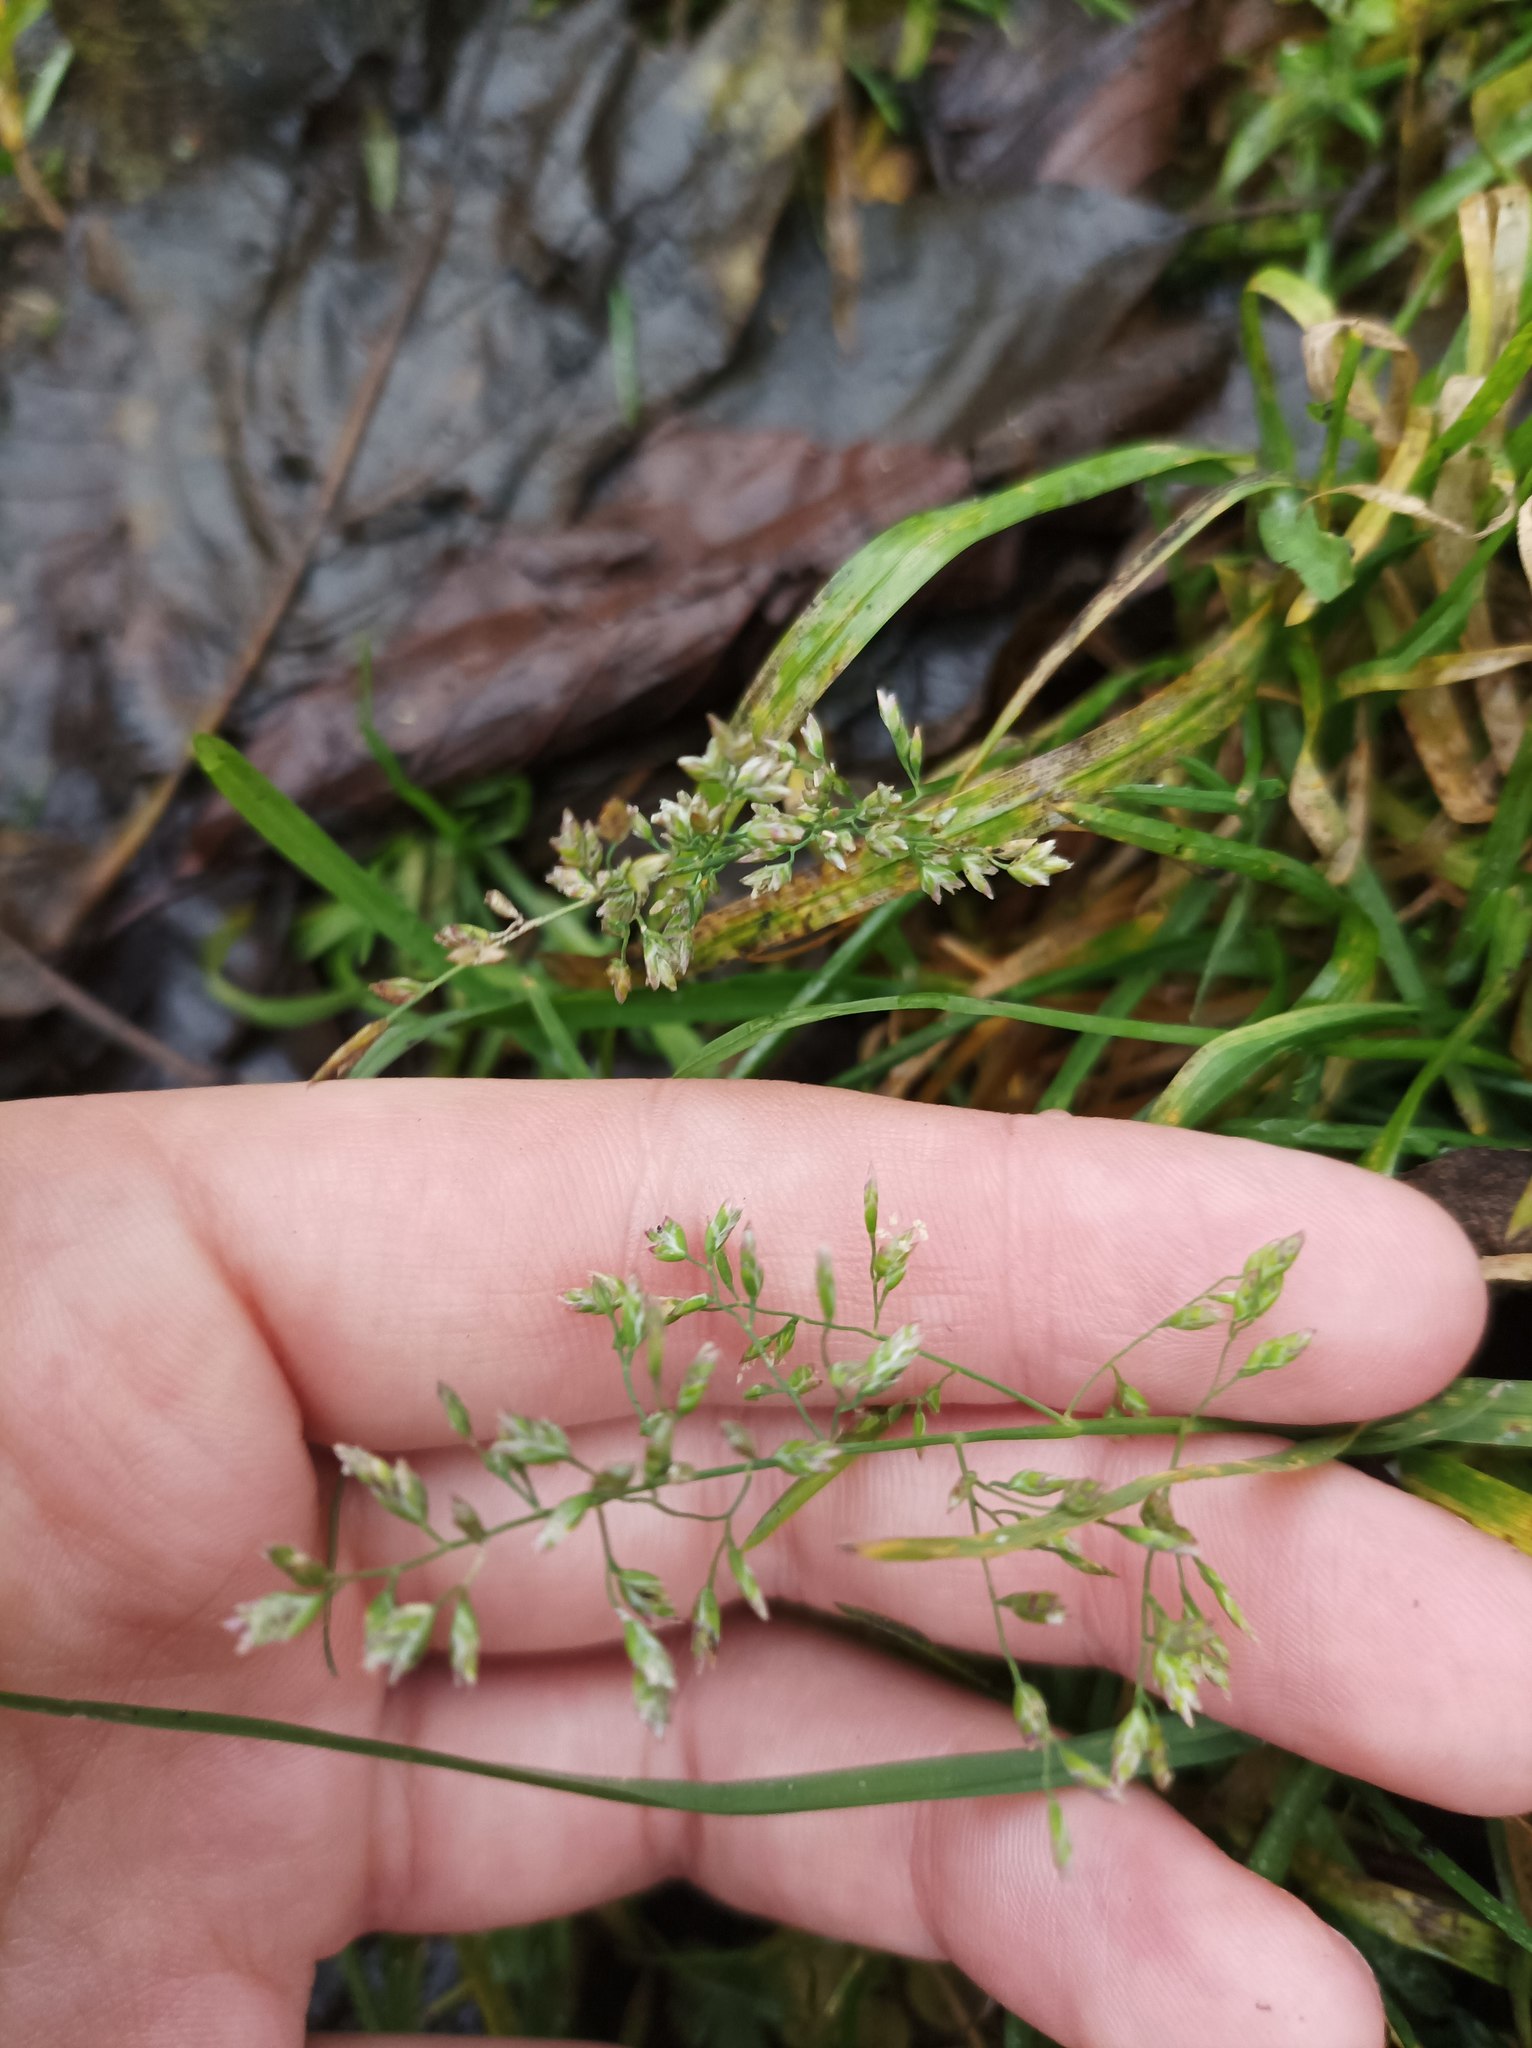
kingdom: Plantae
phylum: Tracheophyta
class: Liliopsida
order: Poales
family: Poaceae
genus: Poa
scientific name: Poa annua
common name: Annual bluegrass
